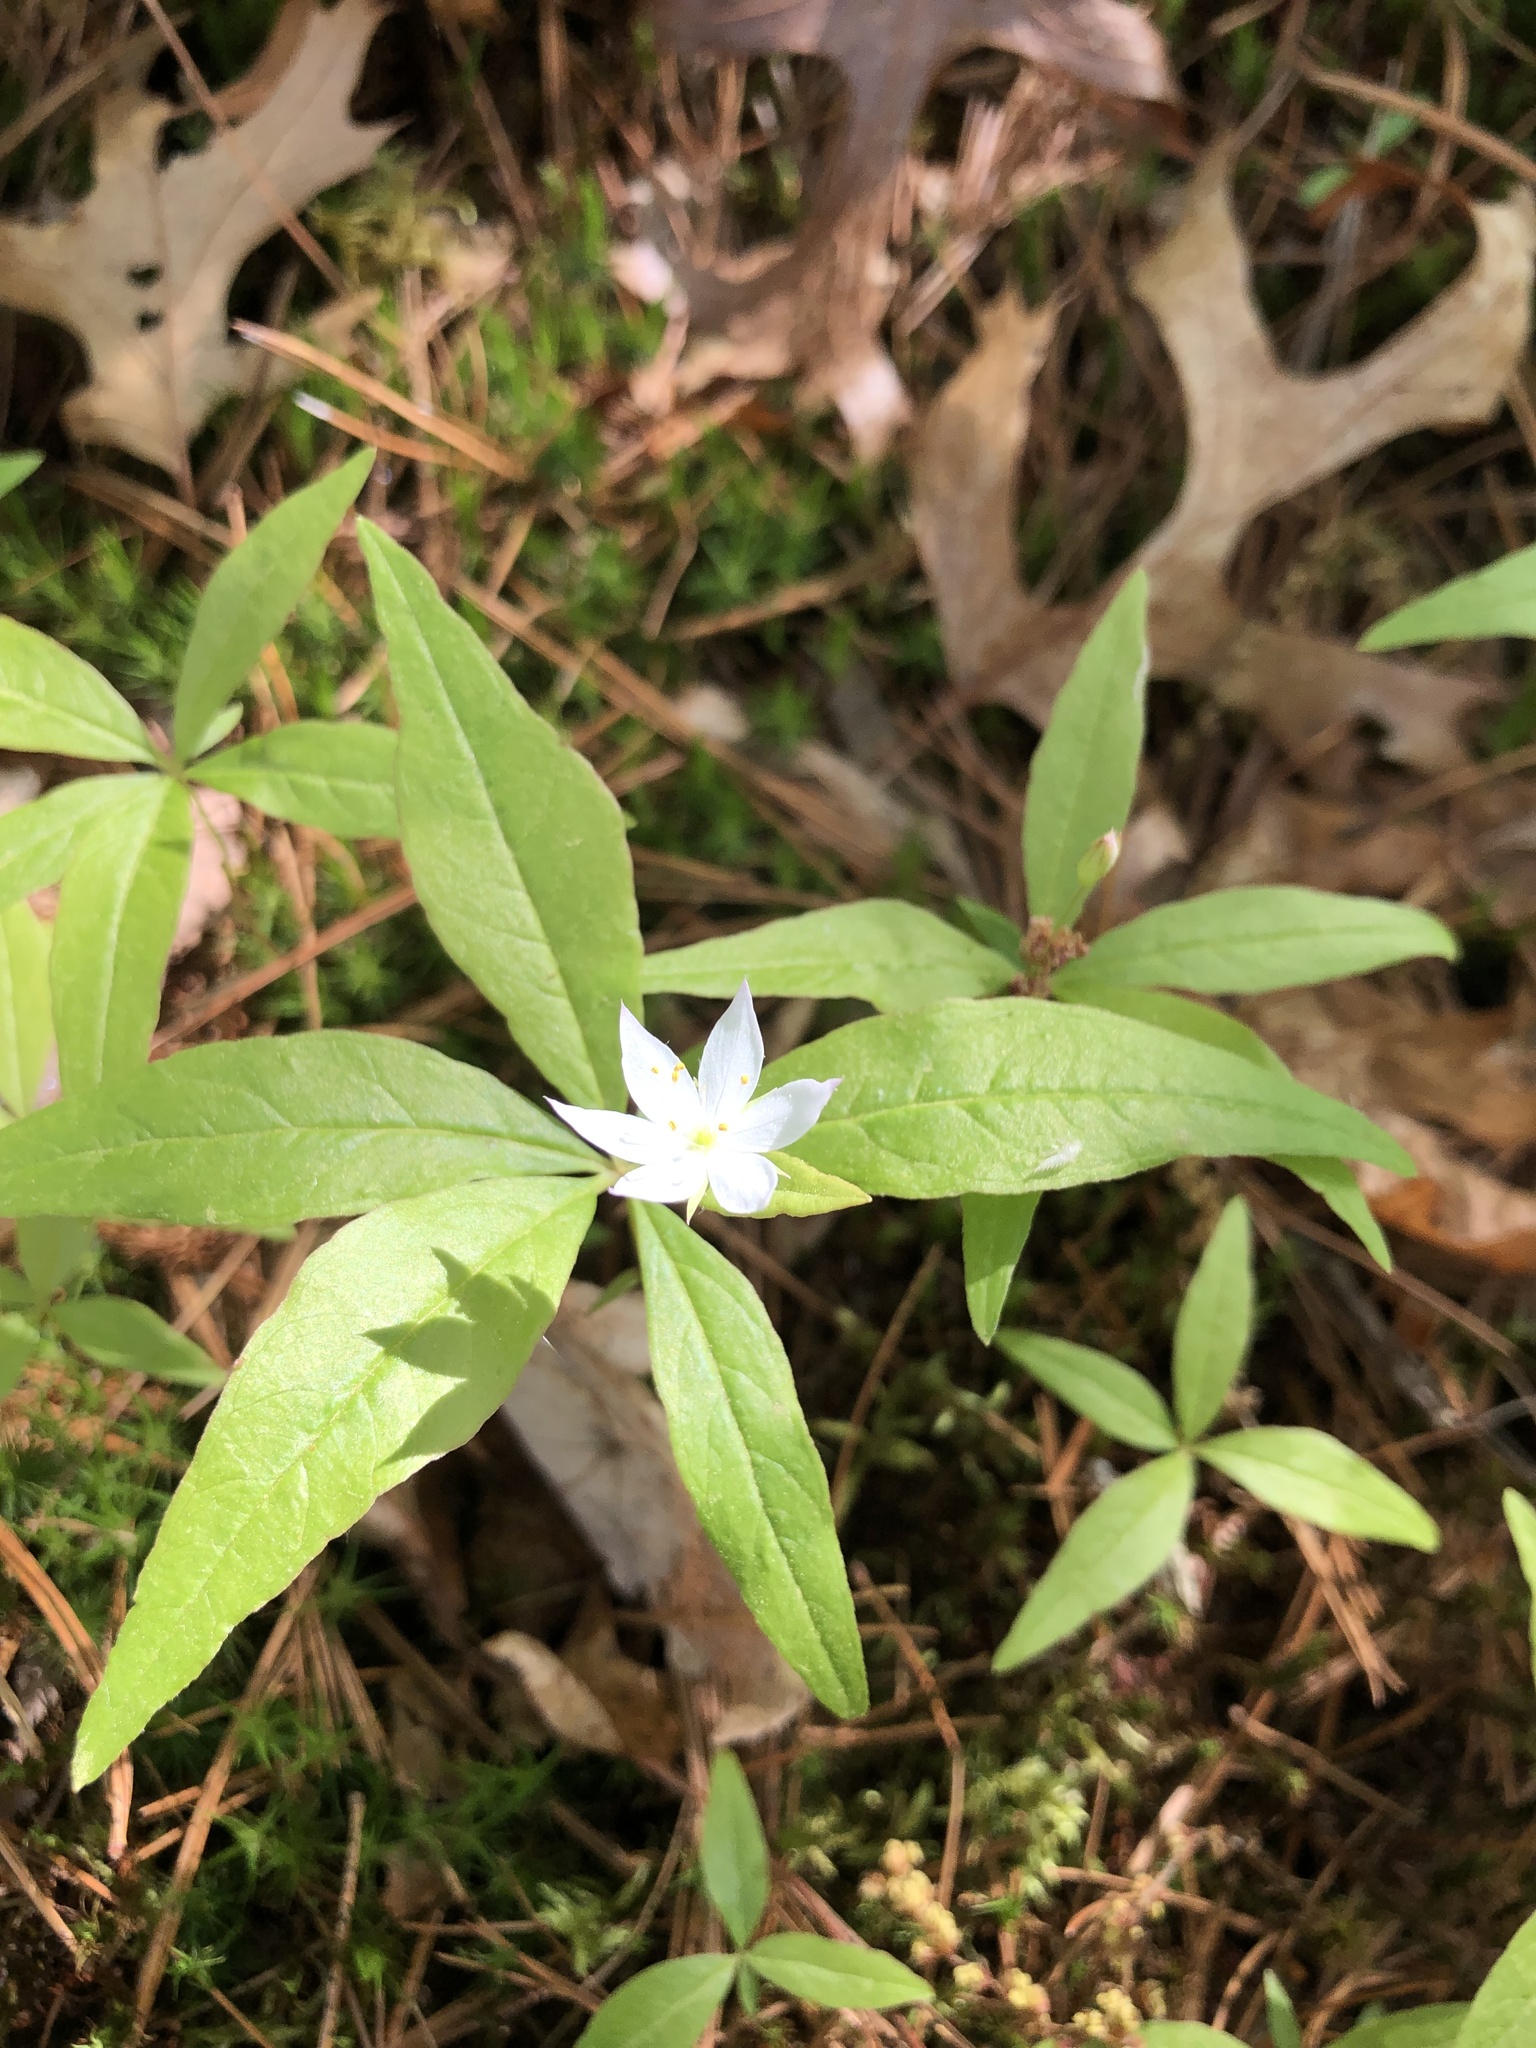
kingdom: Plantae
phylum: Tracheophyta
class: Magnoliopsida
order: Ericales
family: Primulaceae
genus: Lysimachia
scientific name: Lysimachia borealis
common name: American starflower
